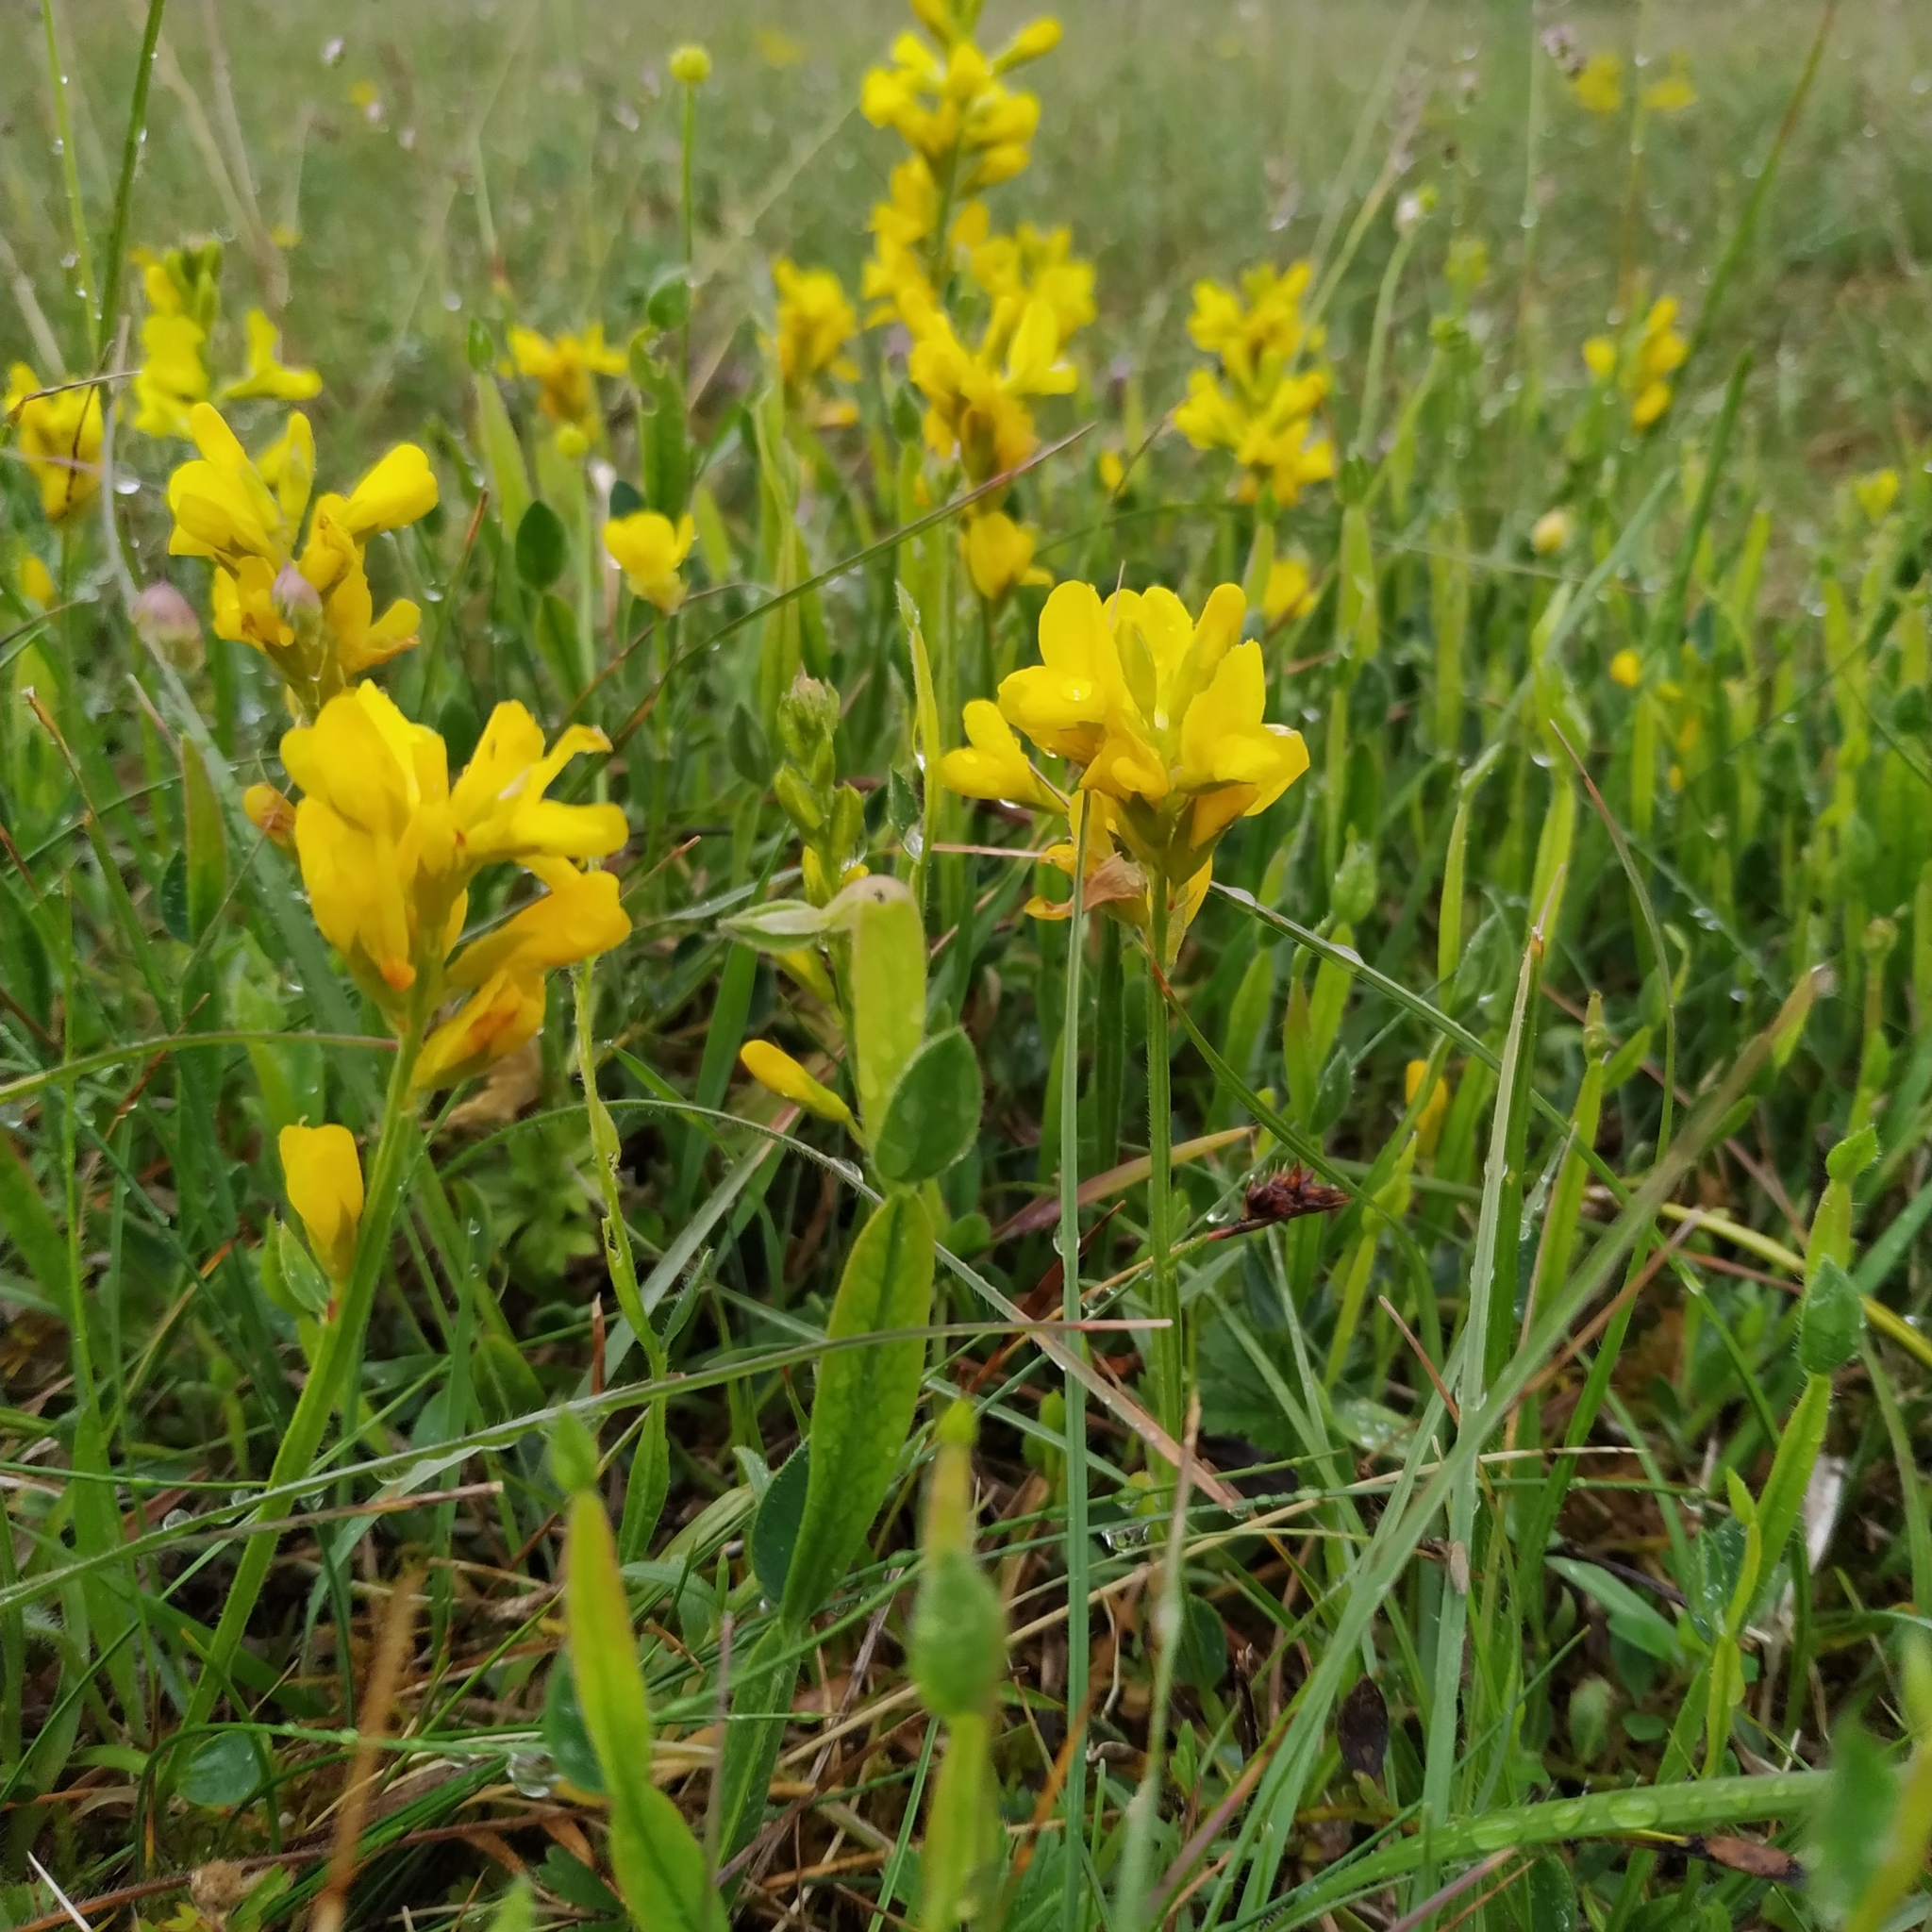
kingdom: Plantae
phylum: Tracheophyta
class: Magnoliopsida
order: Fabales
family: Fabaceae
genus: Genista
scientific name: Genista sagittalis
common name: Winged greenweed
